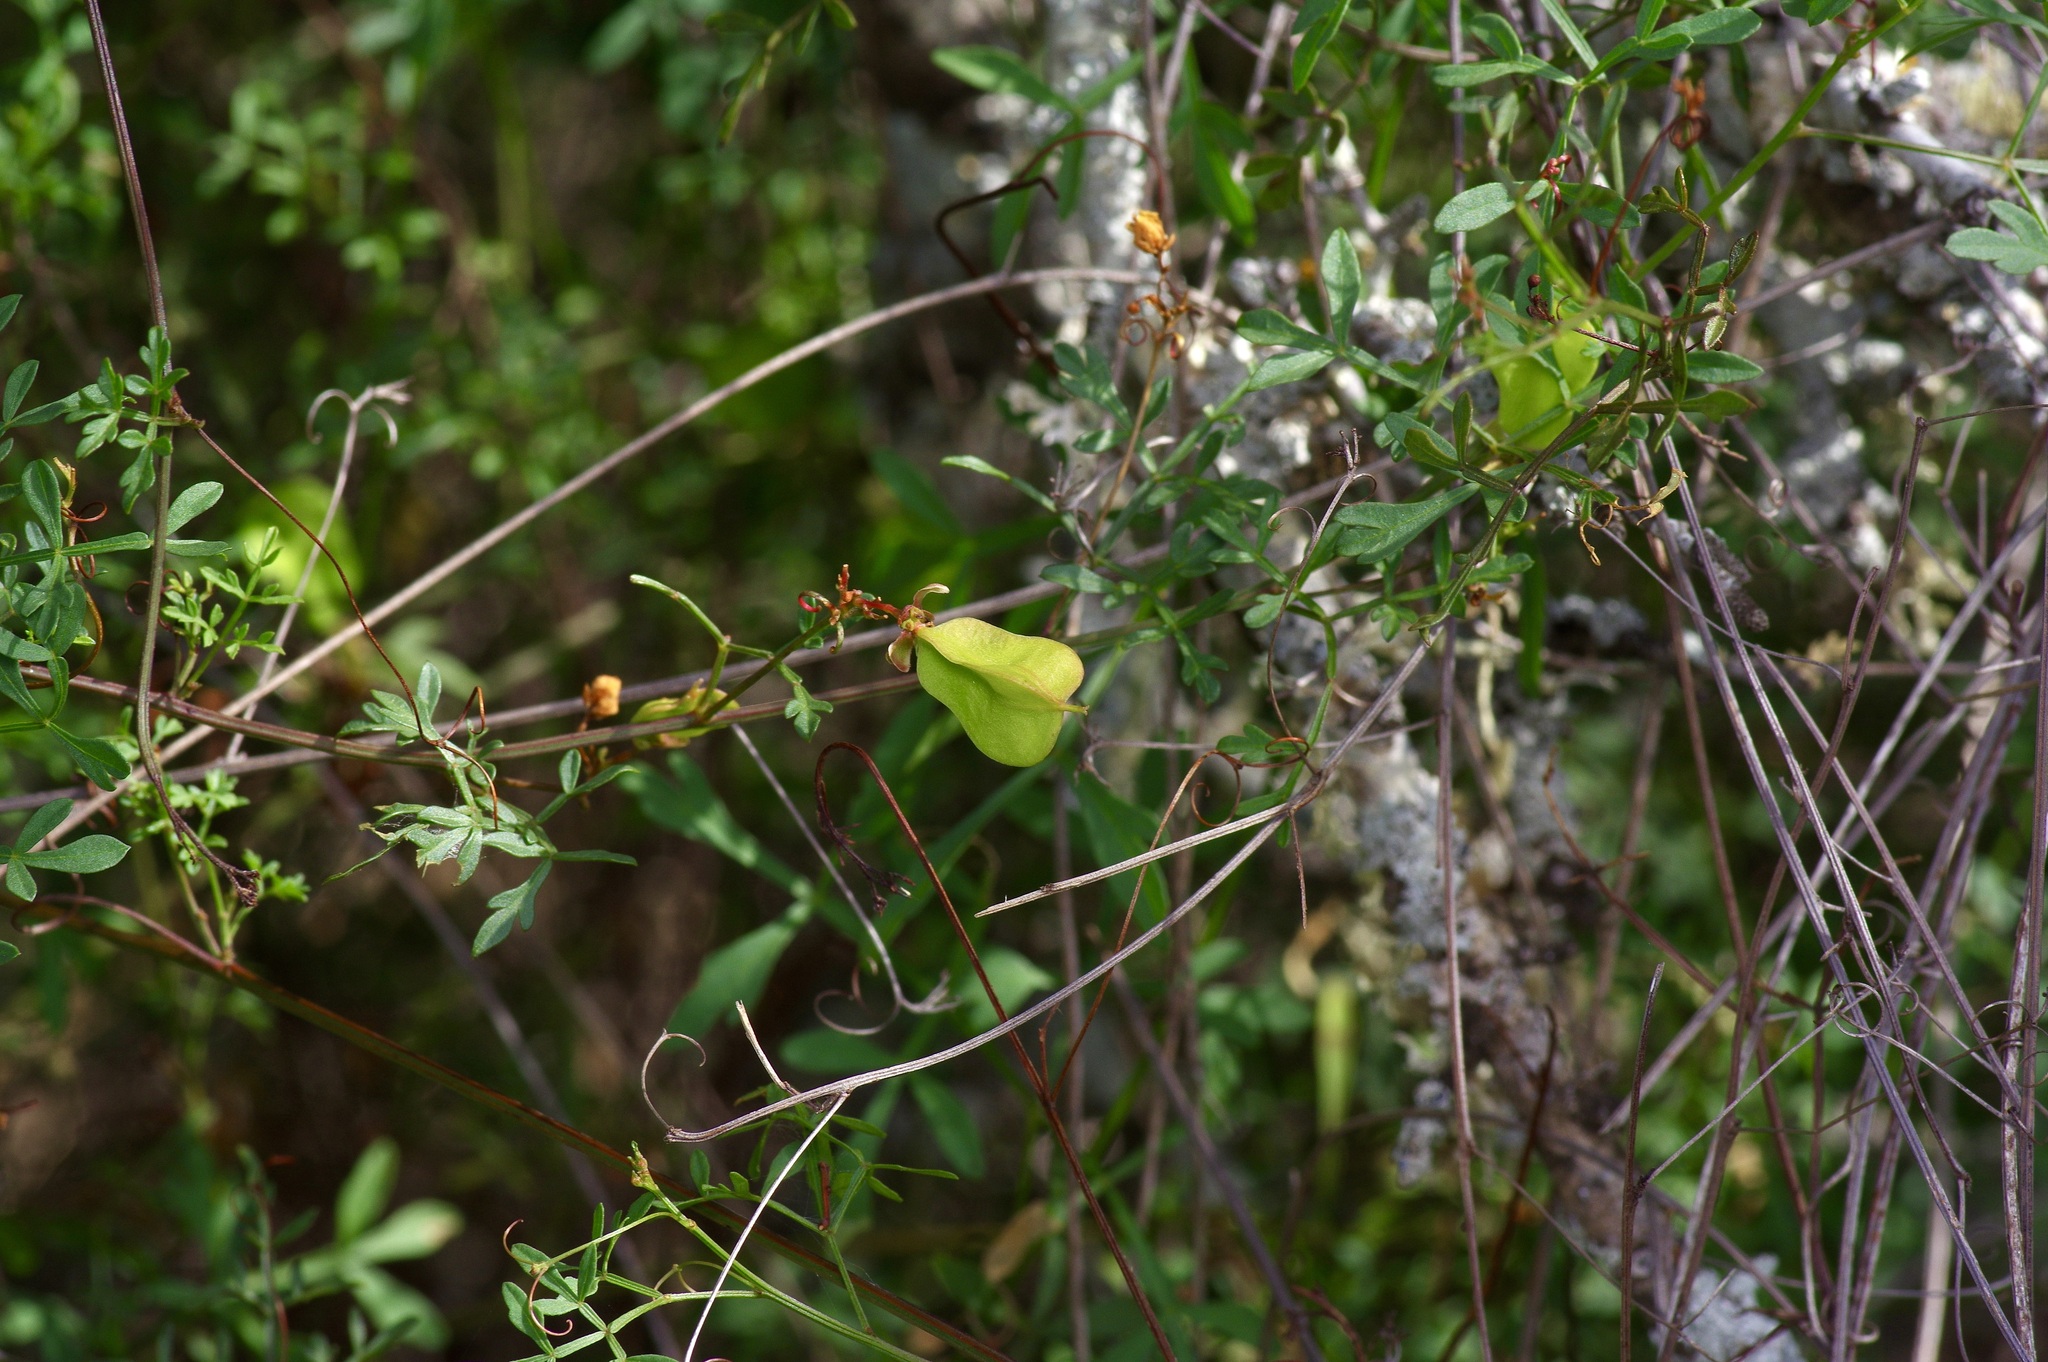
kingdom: Plantae
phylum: Tracheophyta
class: Magnoliopsida
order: Sapindales
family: Sapindaceae
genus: Serjania
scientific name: Serjania dissecta
